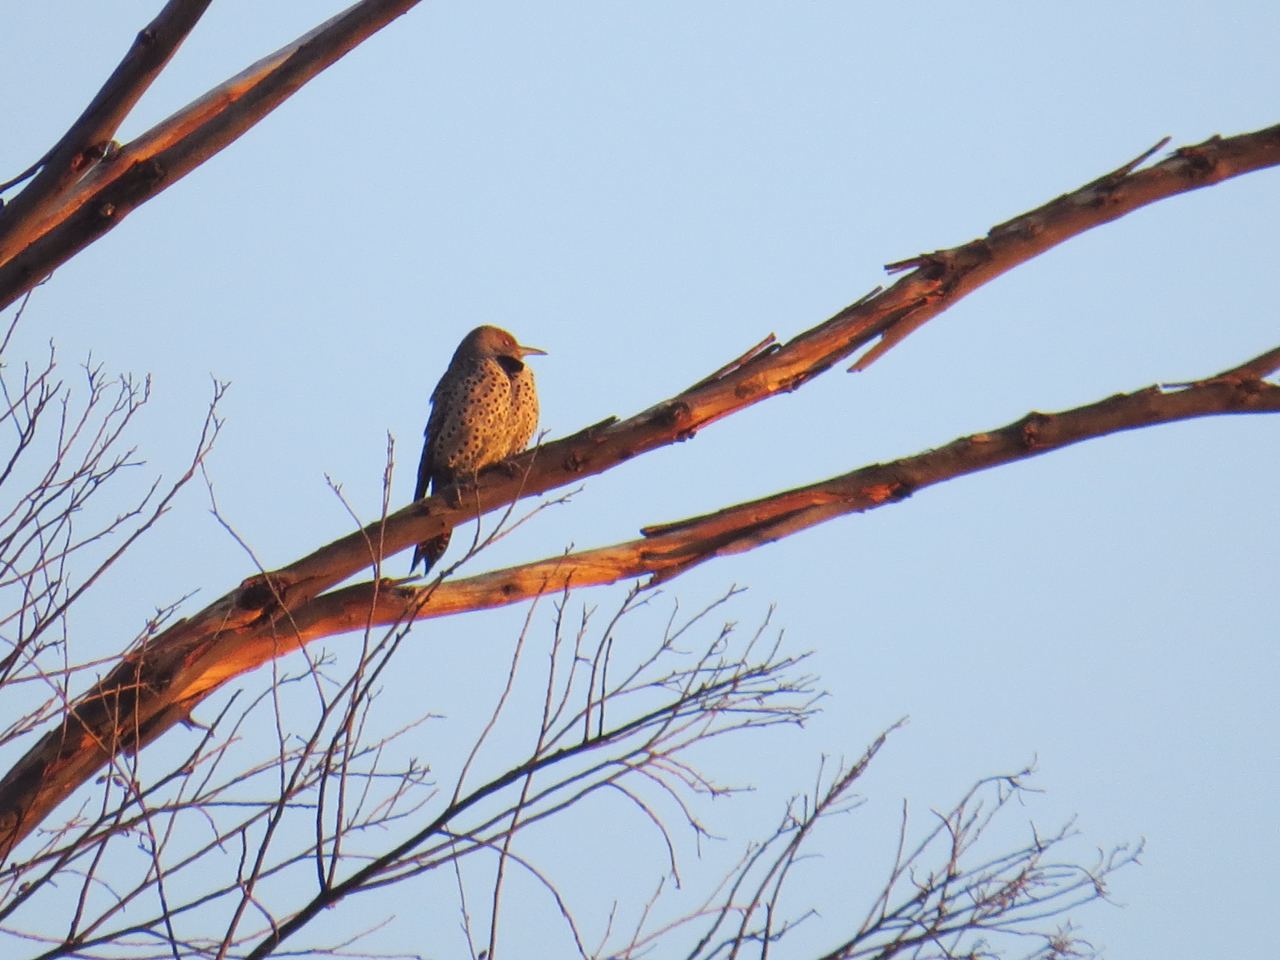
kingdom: Animalia
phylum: Chordata
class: Aves
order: Piciformes
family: Picidae
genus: Colaptes
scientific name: Colaptes auratus
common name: Northern flicker
